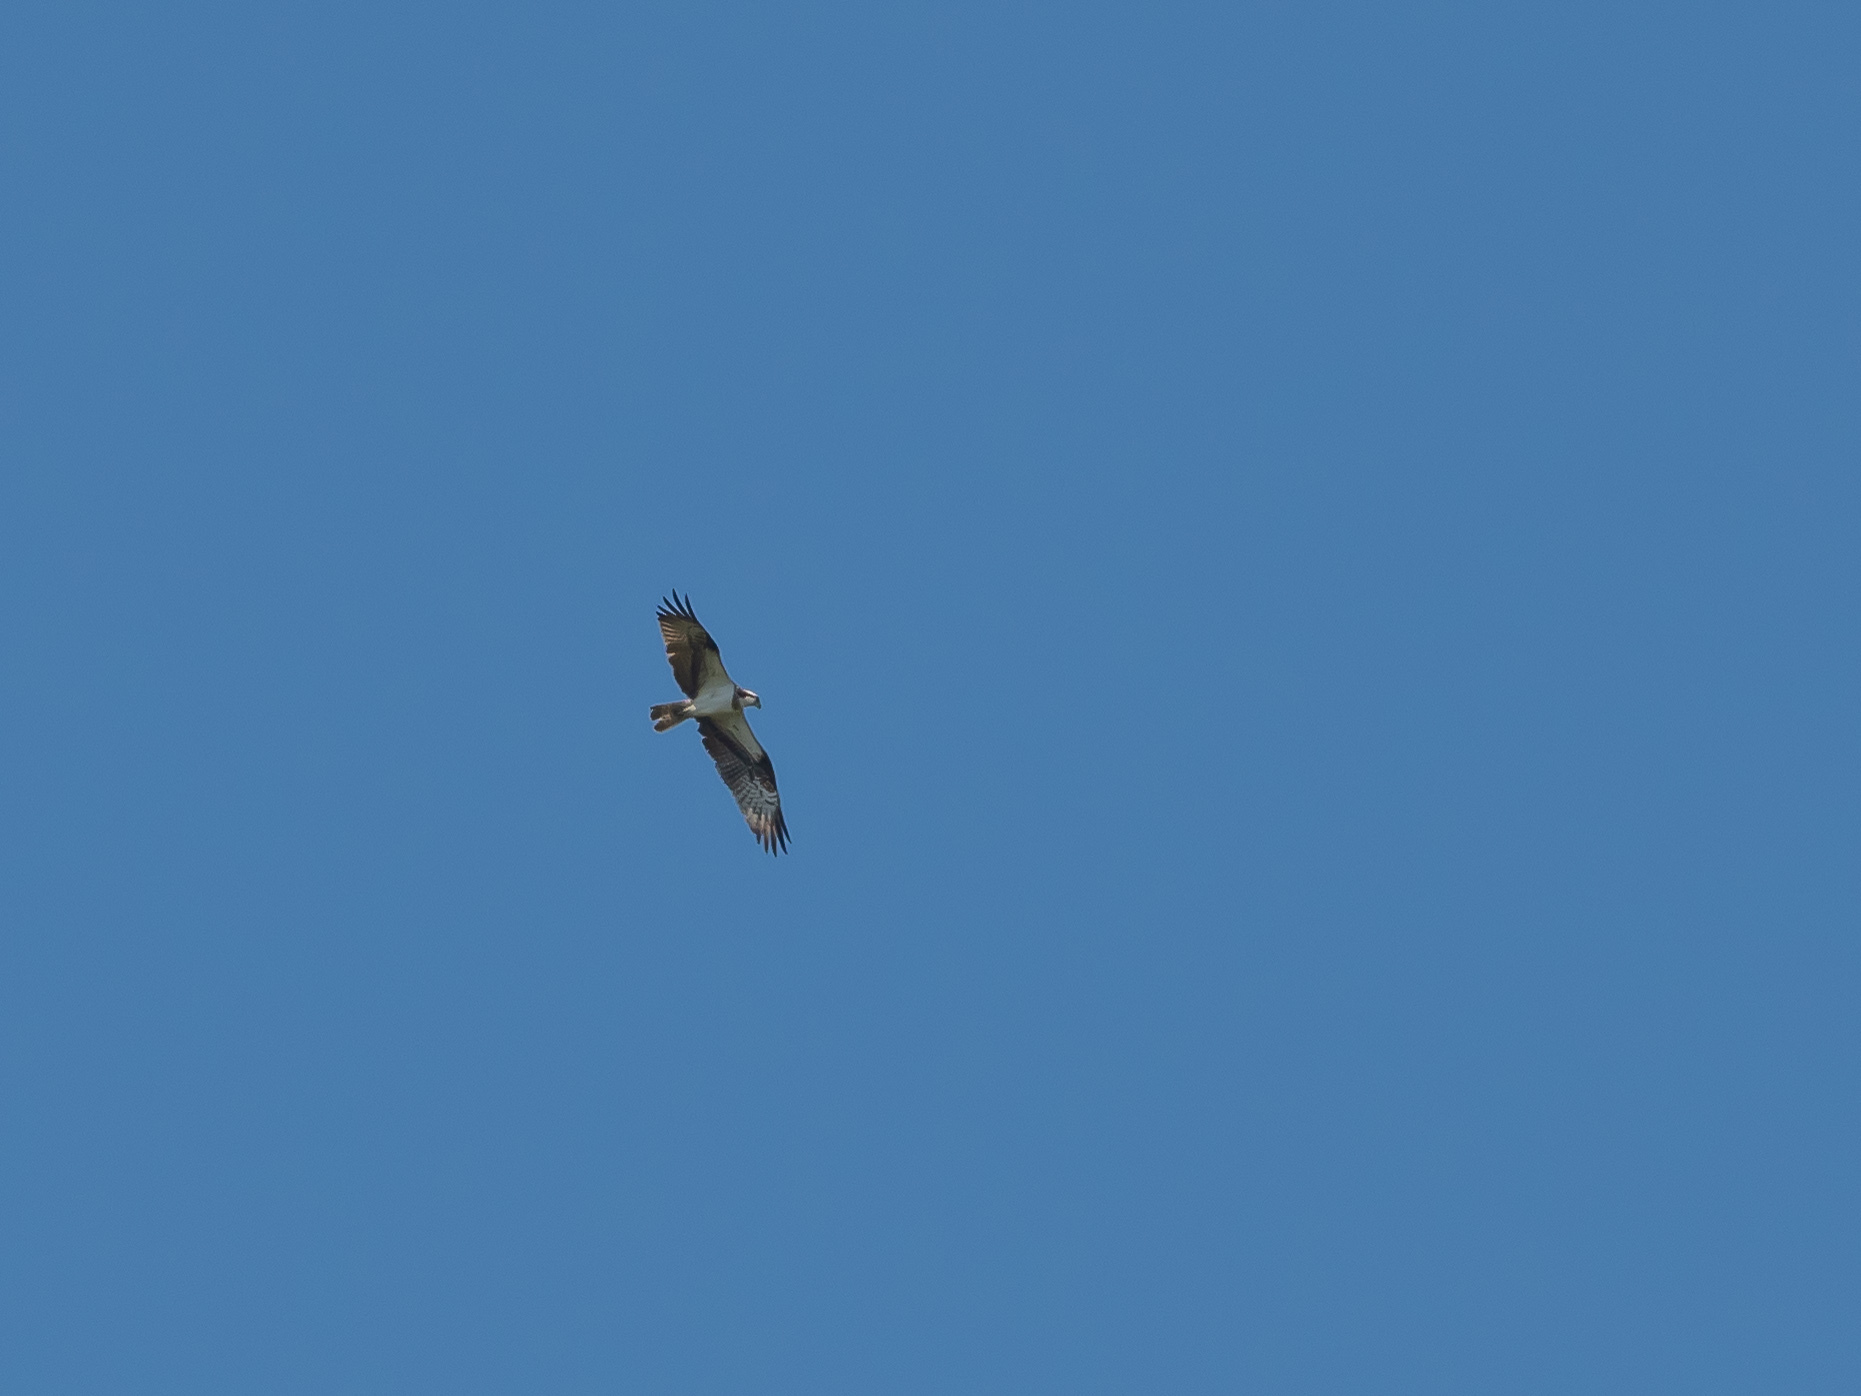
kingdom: Animalia
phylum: Chordata
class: Aves
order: Accipitriformes
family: Pandionidae
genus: Pandion
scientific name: Pandion haliaetus
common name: Osprey
